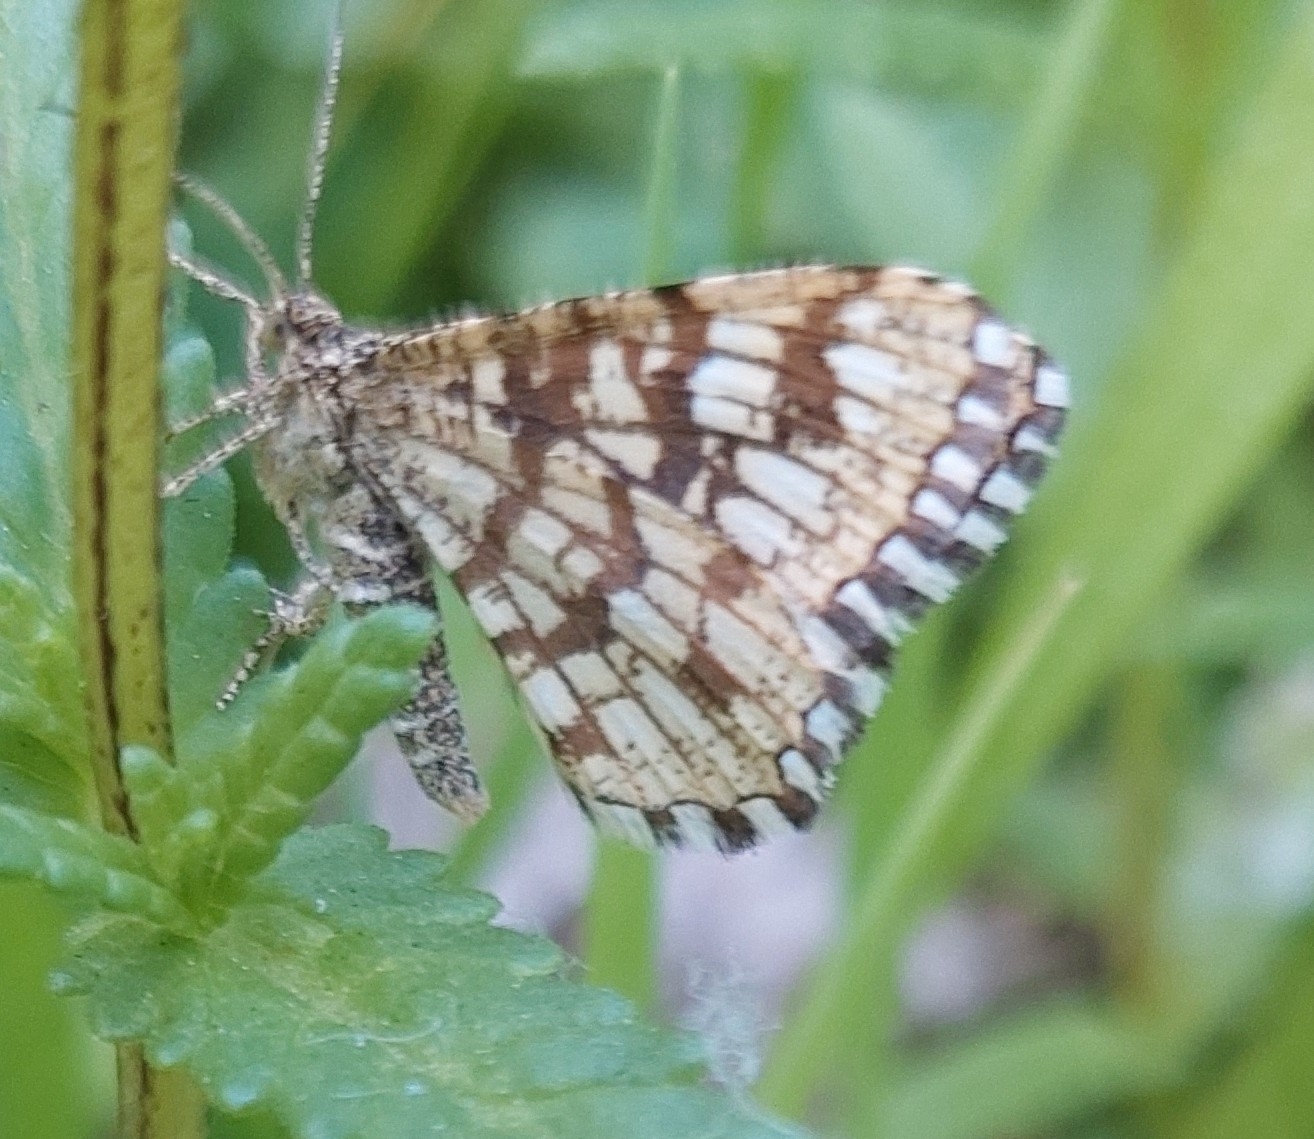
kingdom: Animalia
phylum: Arthropoda
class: Insecta
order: Lepidoptera
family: Geometridae
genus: Chiasmia
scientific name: Chiasmia clathrata
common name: Latticed heath
